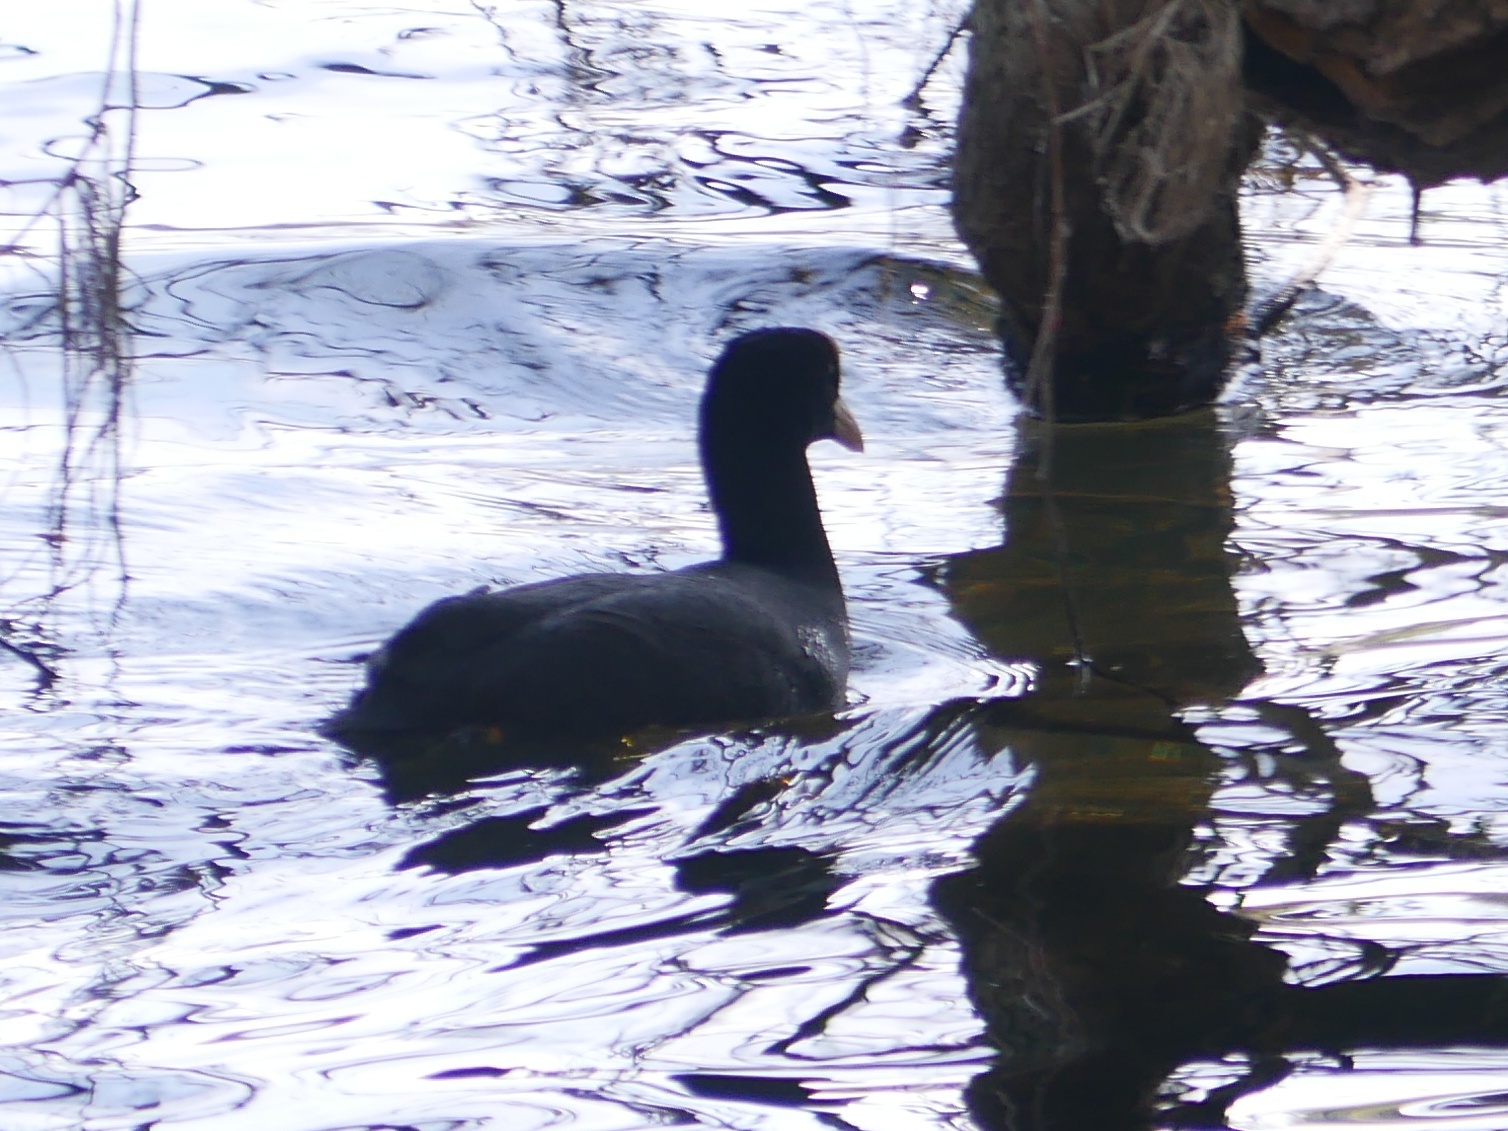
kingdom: Animalia
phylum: Chordata
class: Aves
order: Gruiformes
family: Rallidae
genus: Fulica
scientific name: Fulica atra
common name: Eurasian coot
